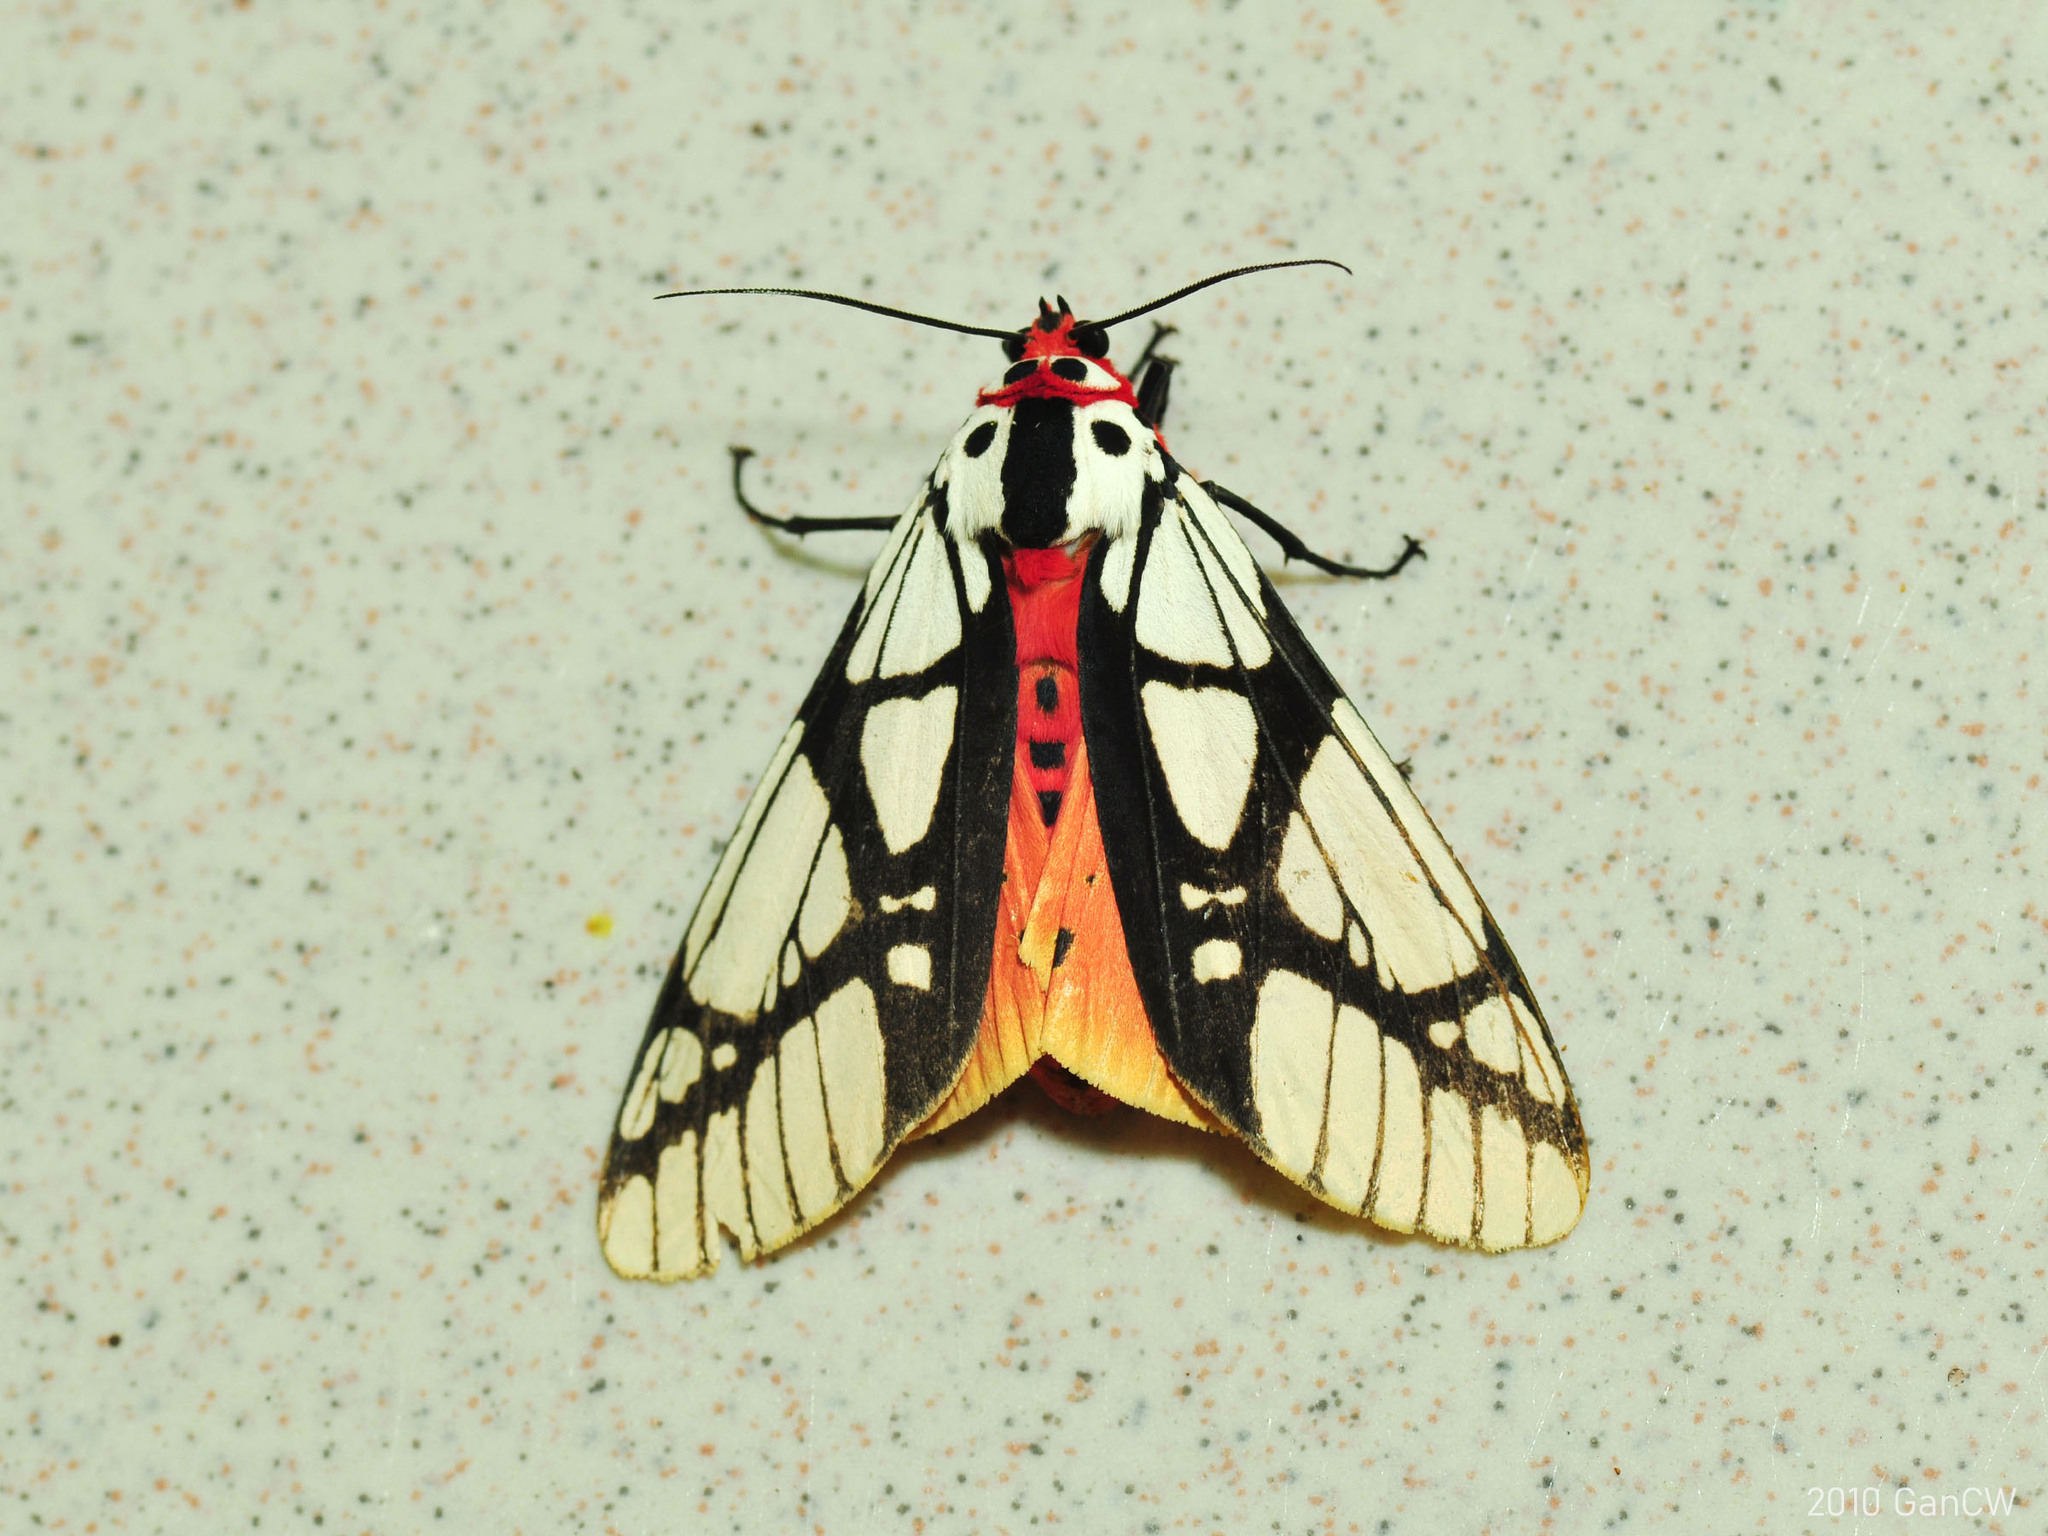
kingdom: Animalia
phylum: Arthropoda
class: Insecta
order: Lepidoptera
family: Erebidae
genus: Areas
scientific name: Areas galactina
